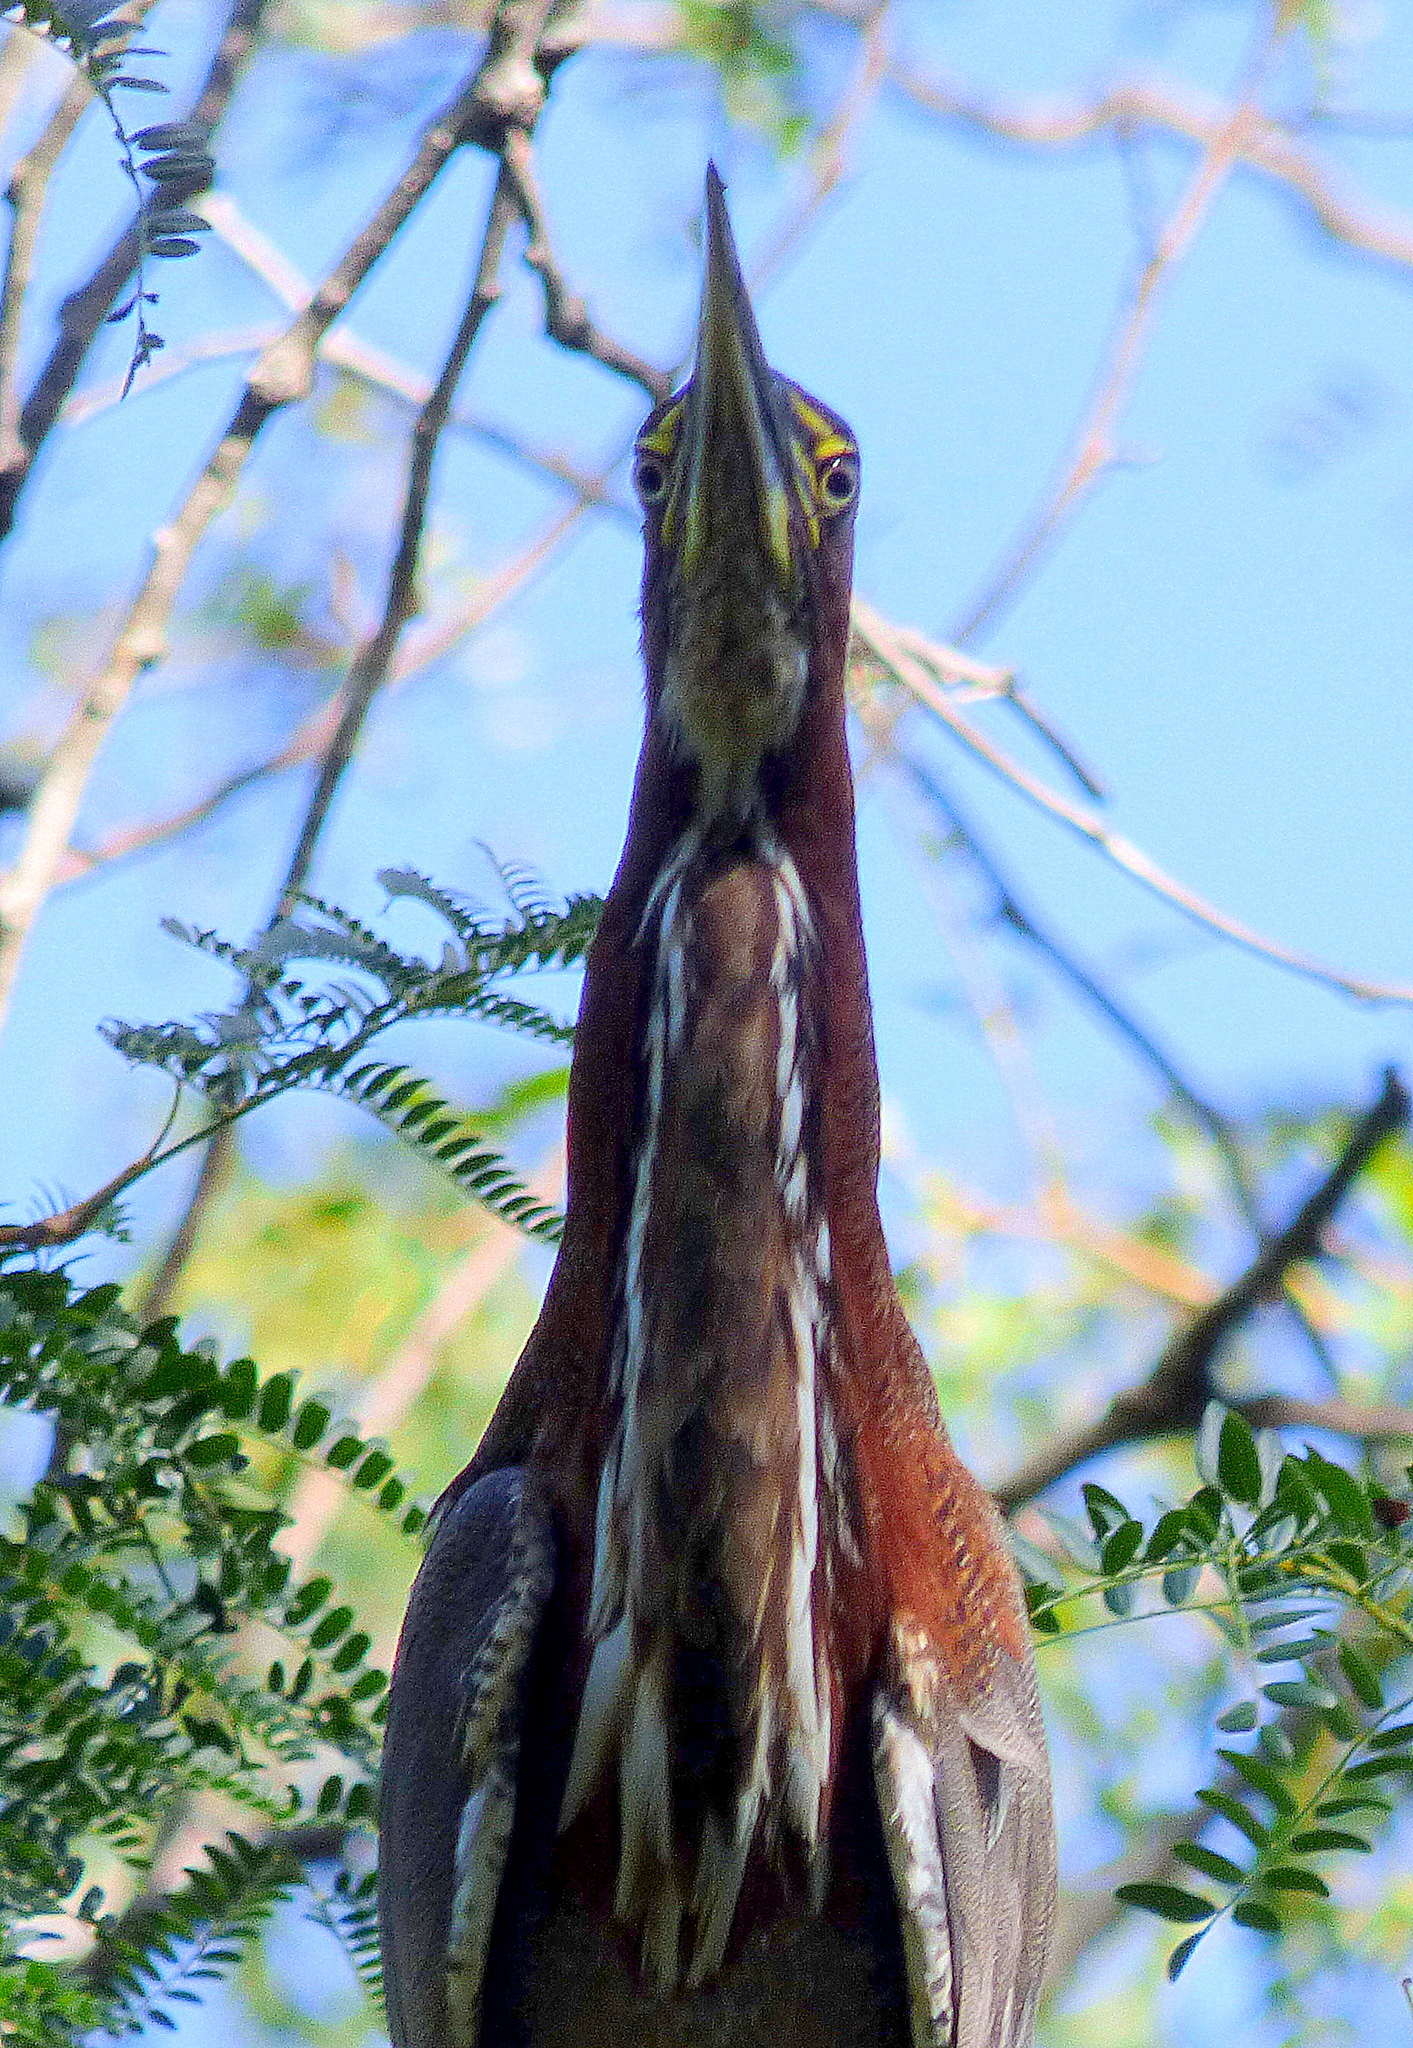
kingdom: Animalia
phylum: Chordata
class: Aves
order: Pelecaniformes
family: Ardeidae
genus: Tigrisoma
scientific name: Tigrisoma lineatum
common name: Rufescent tiger-heron
